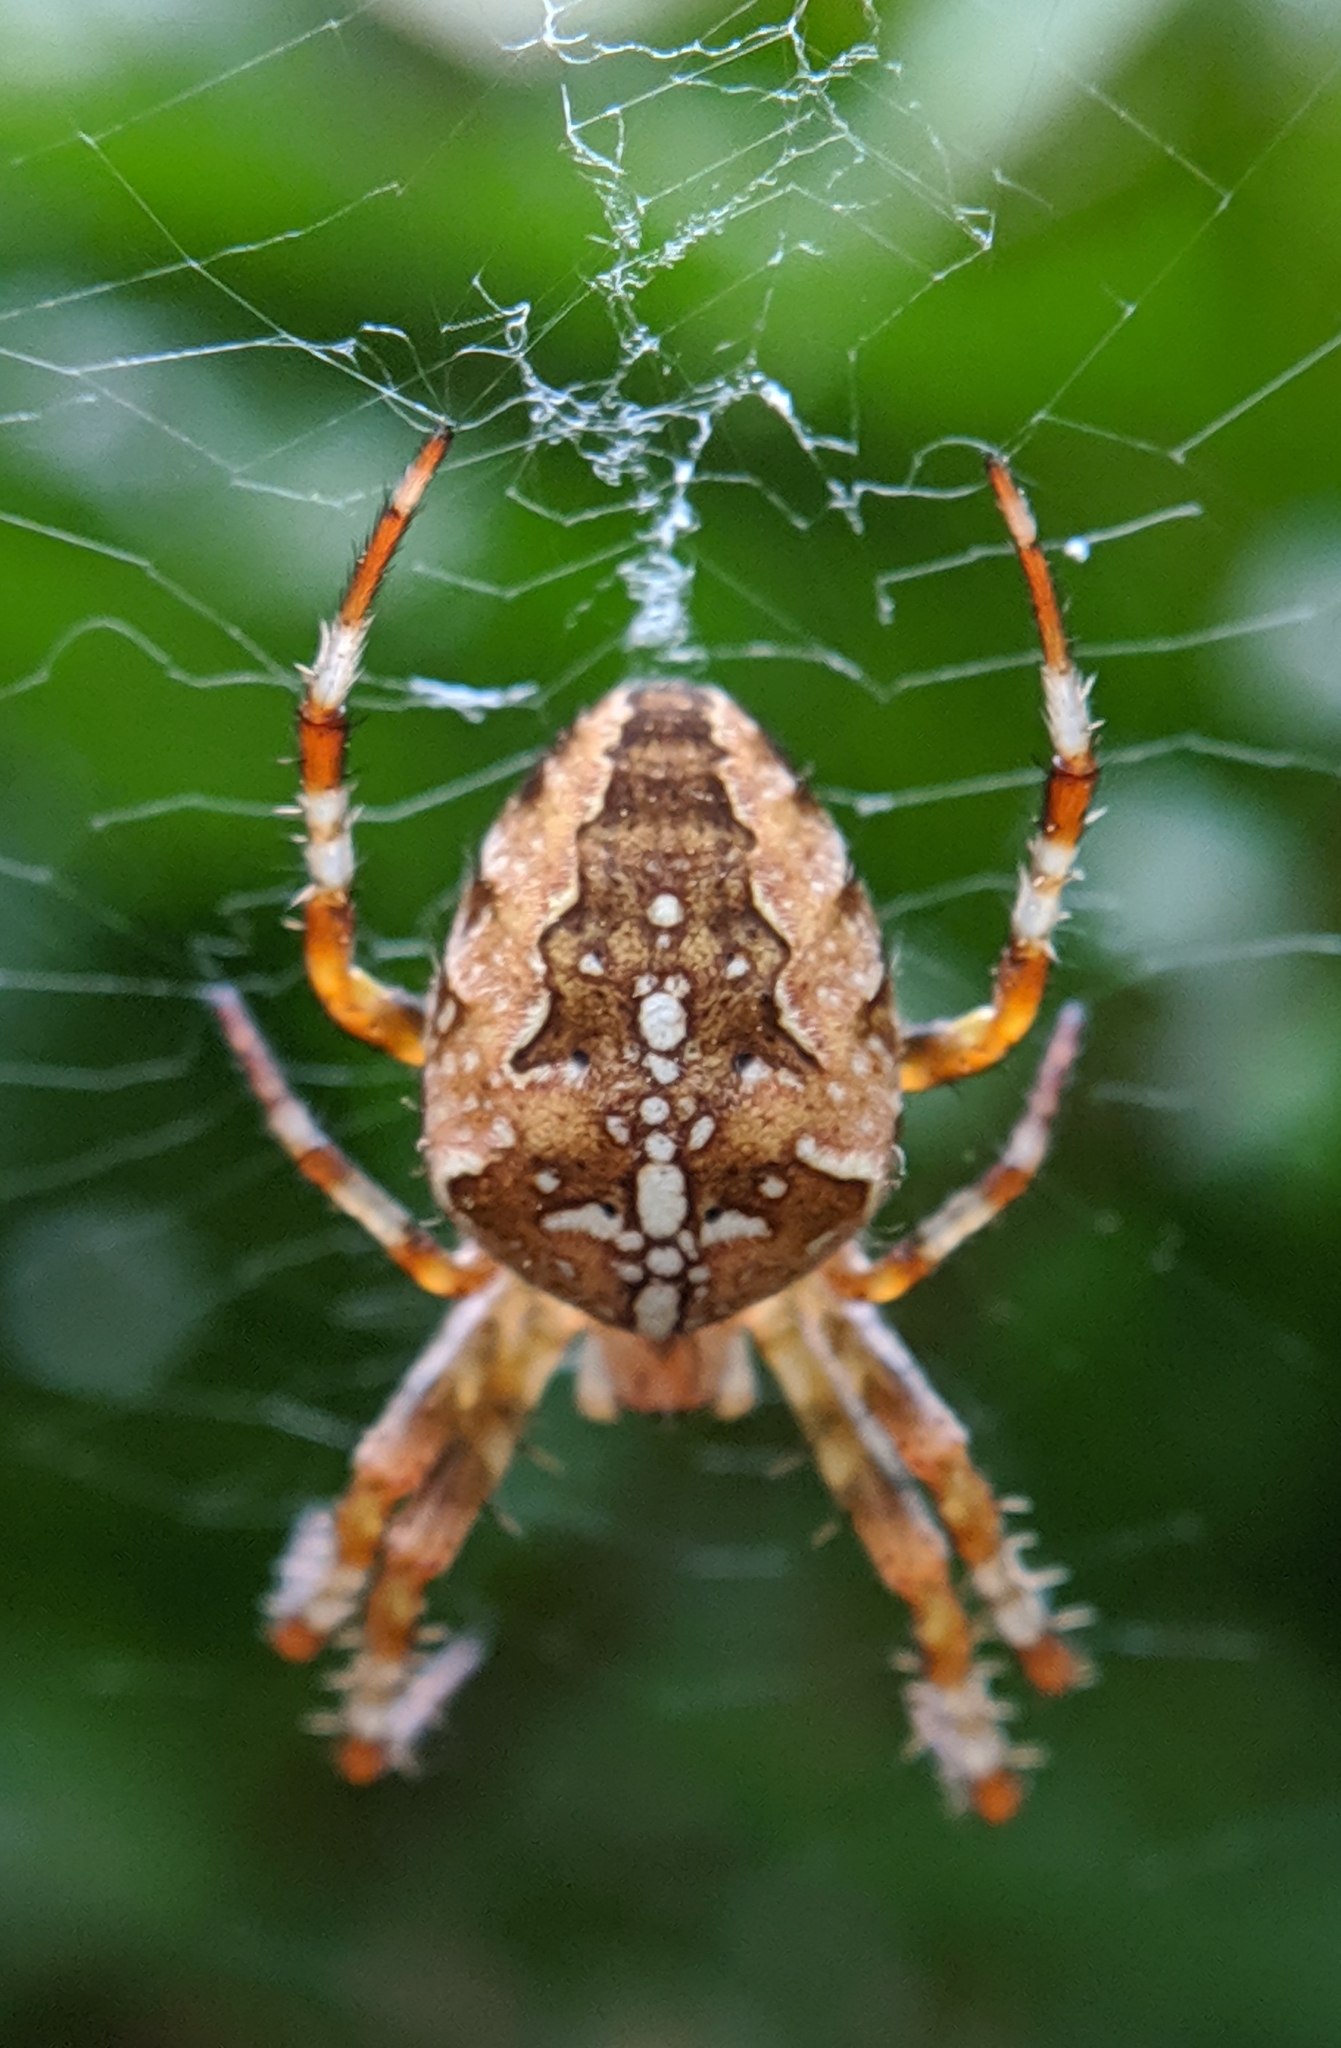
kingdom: Animalia
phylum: Arthropoda
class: Arachnida
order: Araneae
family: Araneidae
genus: Araneus
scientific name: Araneus diadematus
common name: Cross orbweaver
